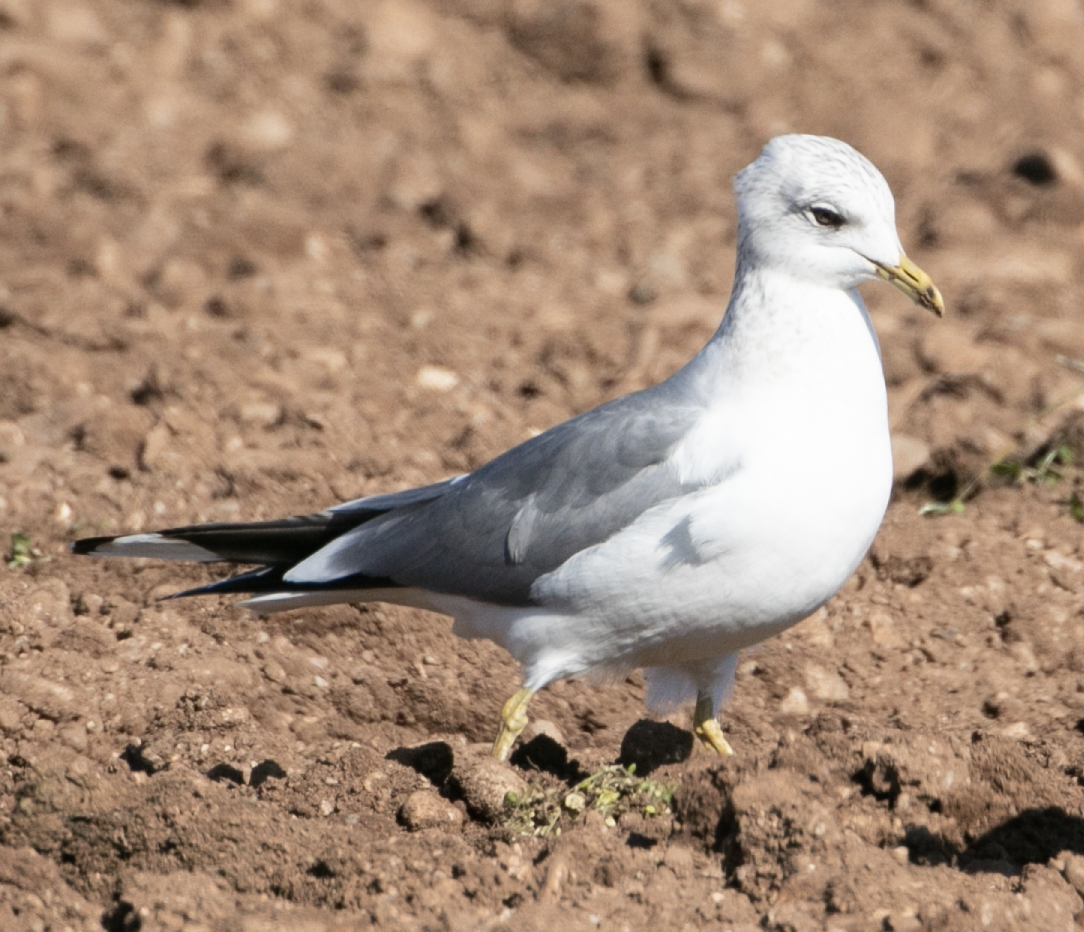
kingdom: Animalia
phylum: Chordata
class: Aves
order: Charadriiformes
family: Laridae
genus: Larus
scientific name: Larus canus
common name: Mew gull
